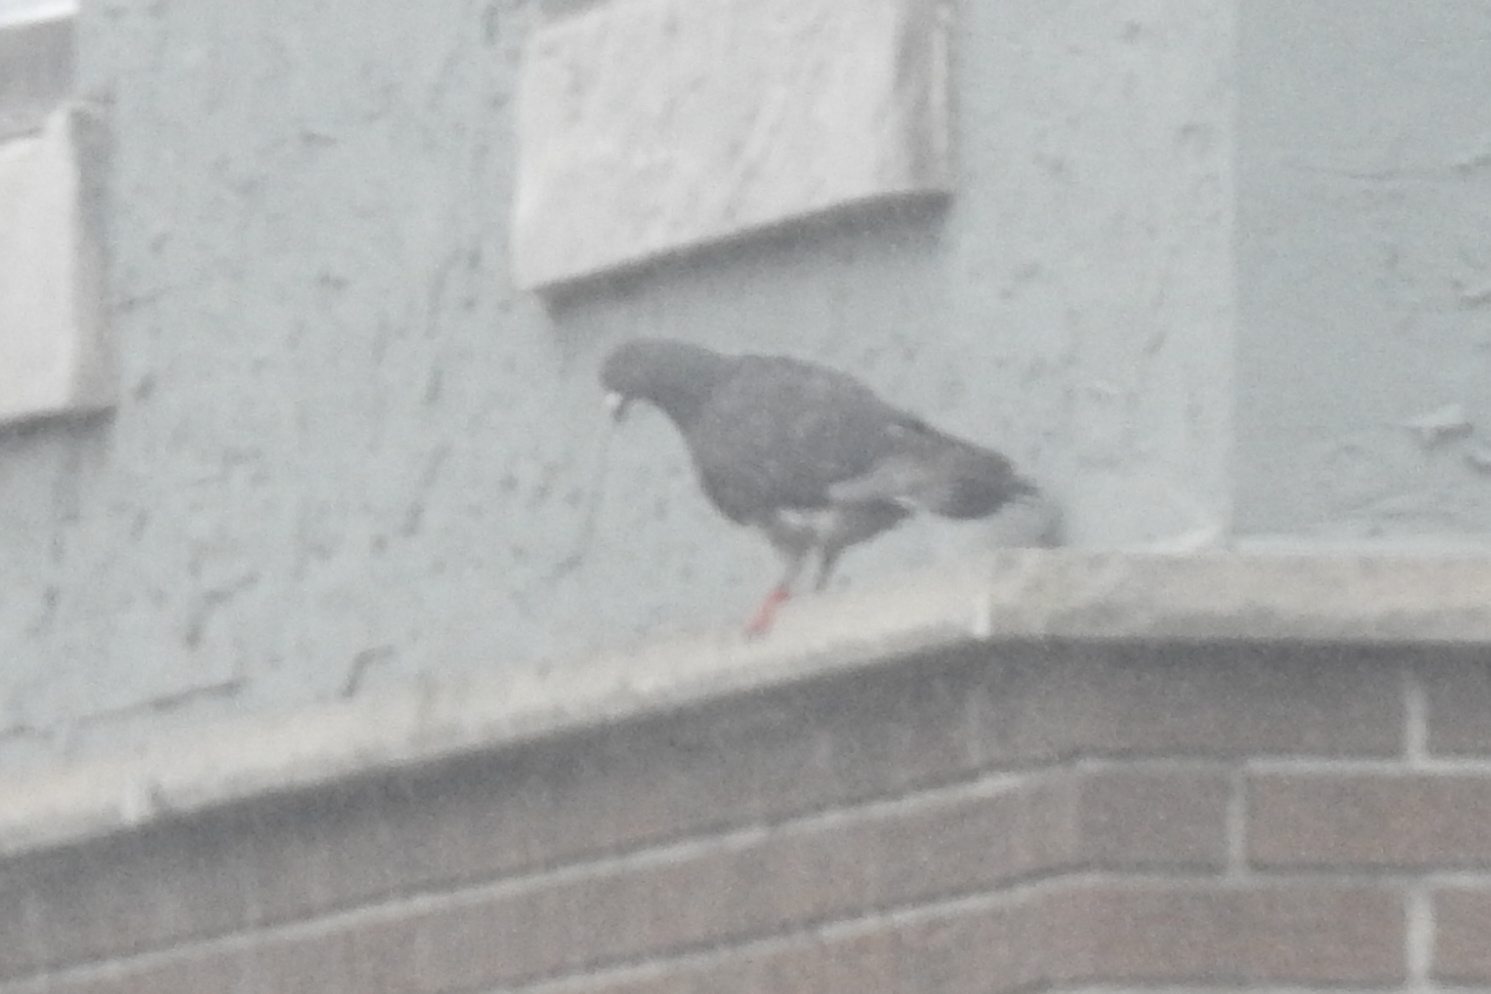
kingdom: Animalia
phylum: Chordata
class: Aves
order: Columbiformes
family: Columbidae
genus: Columba
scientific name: Columba livia
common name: Rock pigeon
